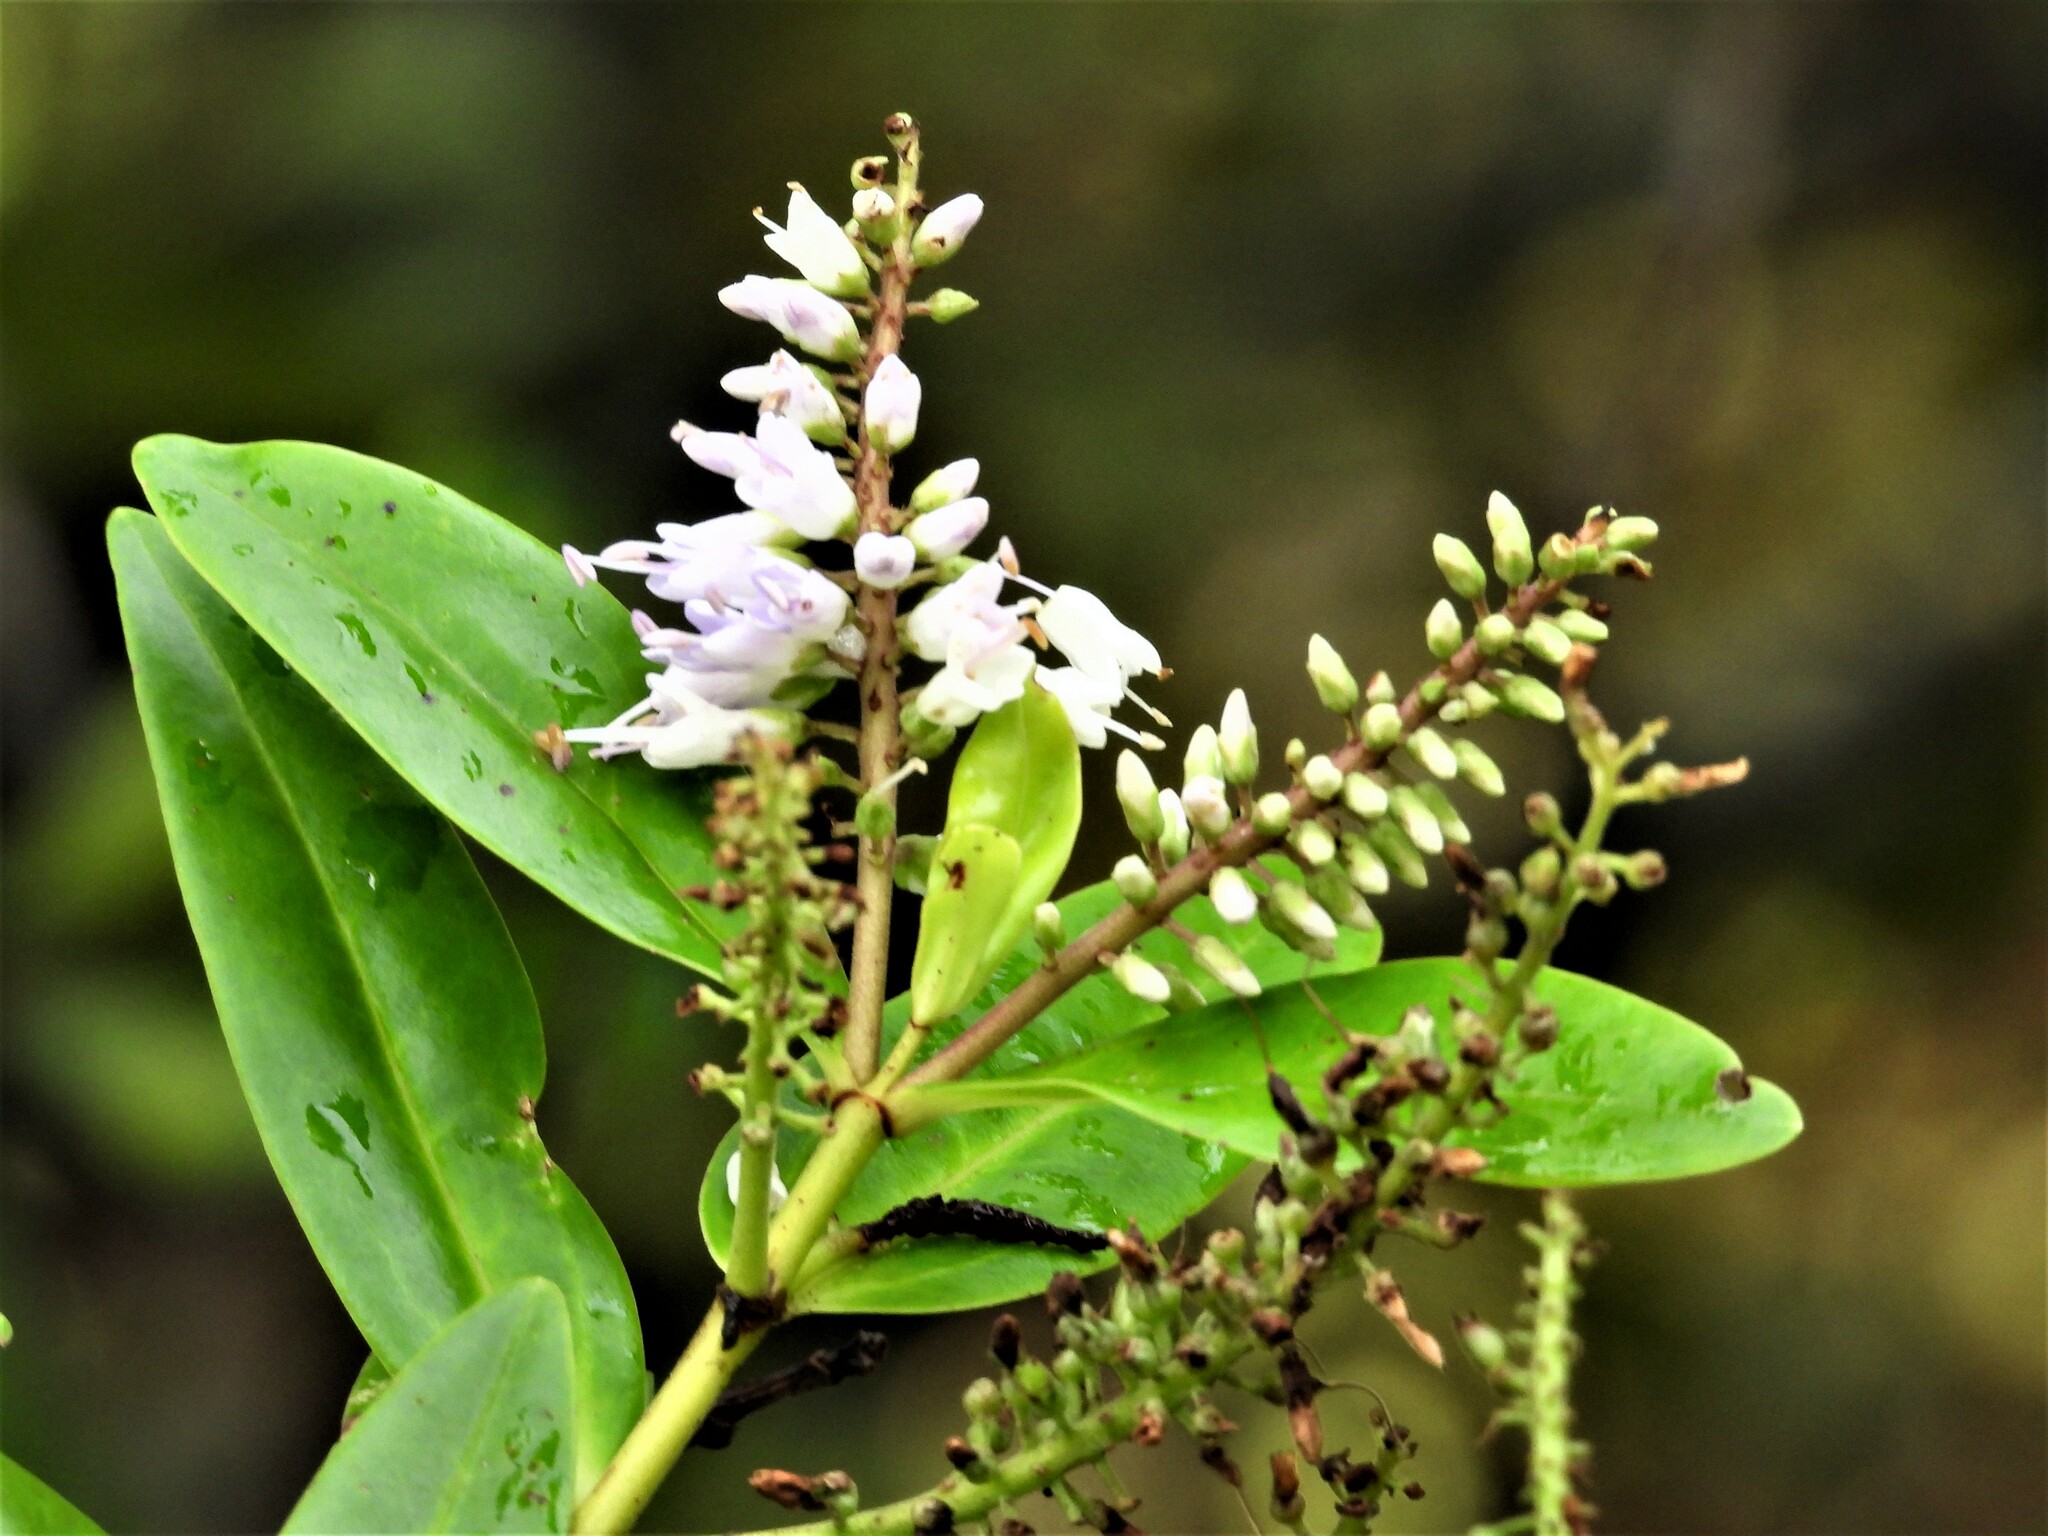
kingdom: Plantae
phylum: Tracheophyta
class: Magnoliopsida
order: Lamiales
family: Plantaginaceae
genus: Veronica
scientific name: Veronica macrocarpa
